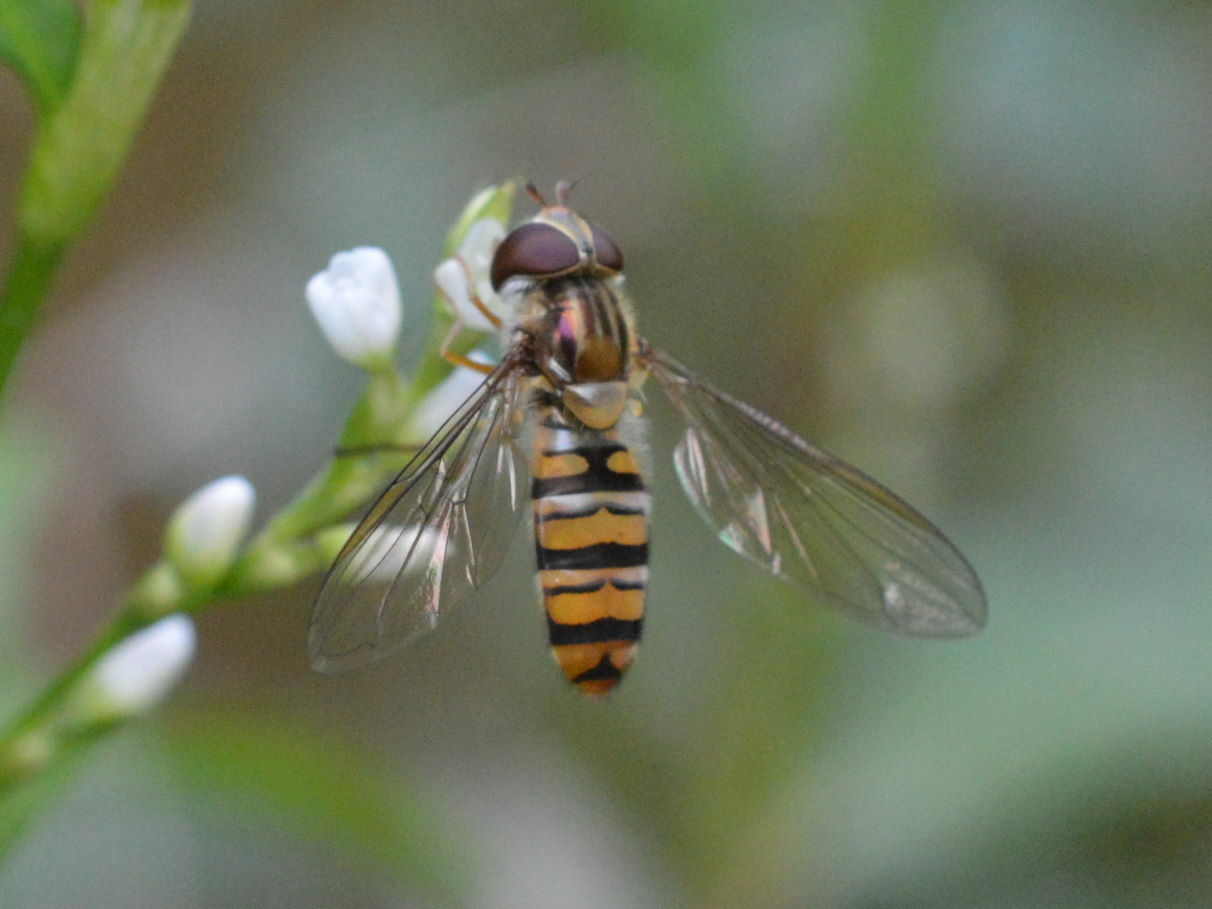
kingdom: Animalia
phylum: Arthropoda
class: Insecta
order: Diptera
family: Syrphidae
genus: Episyrphus
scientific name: Episyrphus balteatus
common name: Marmalade hoverfly
